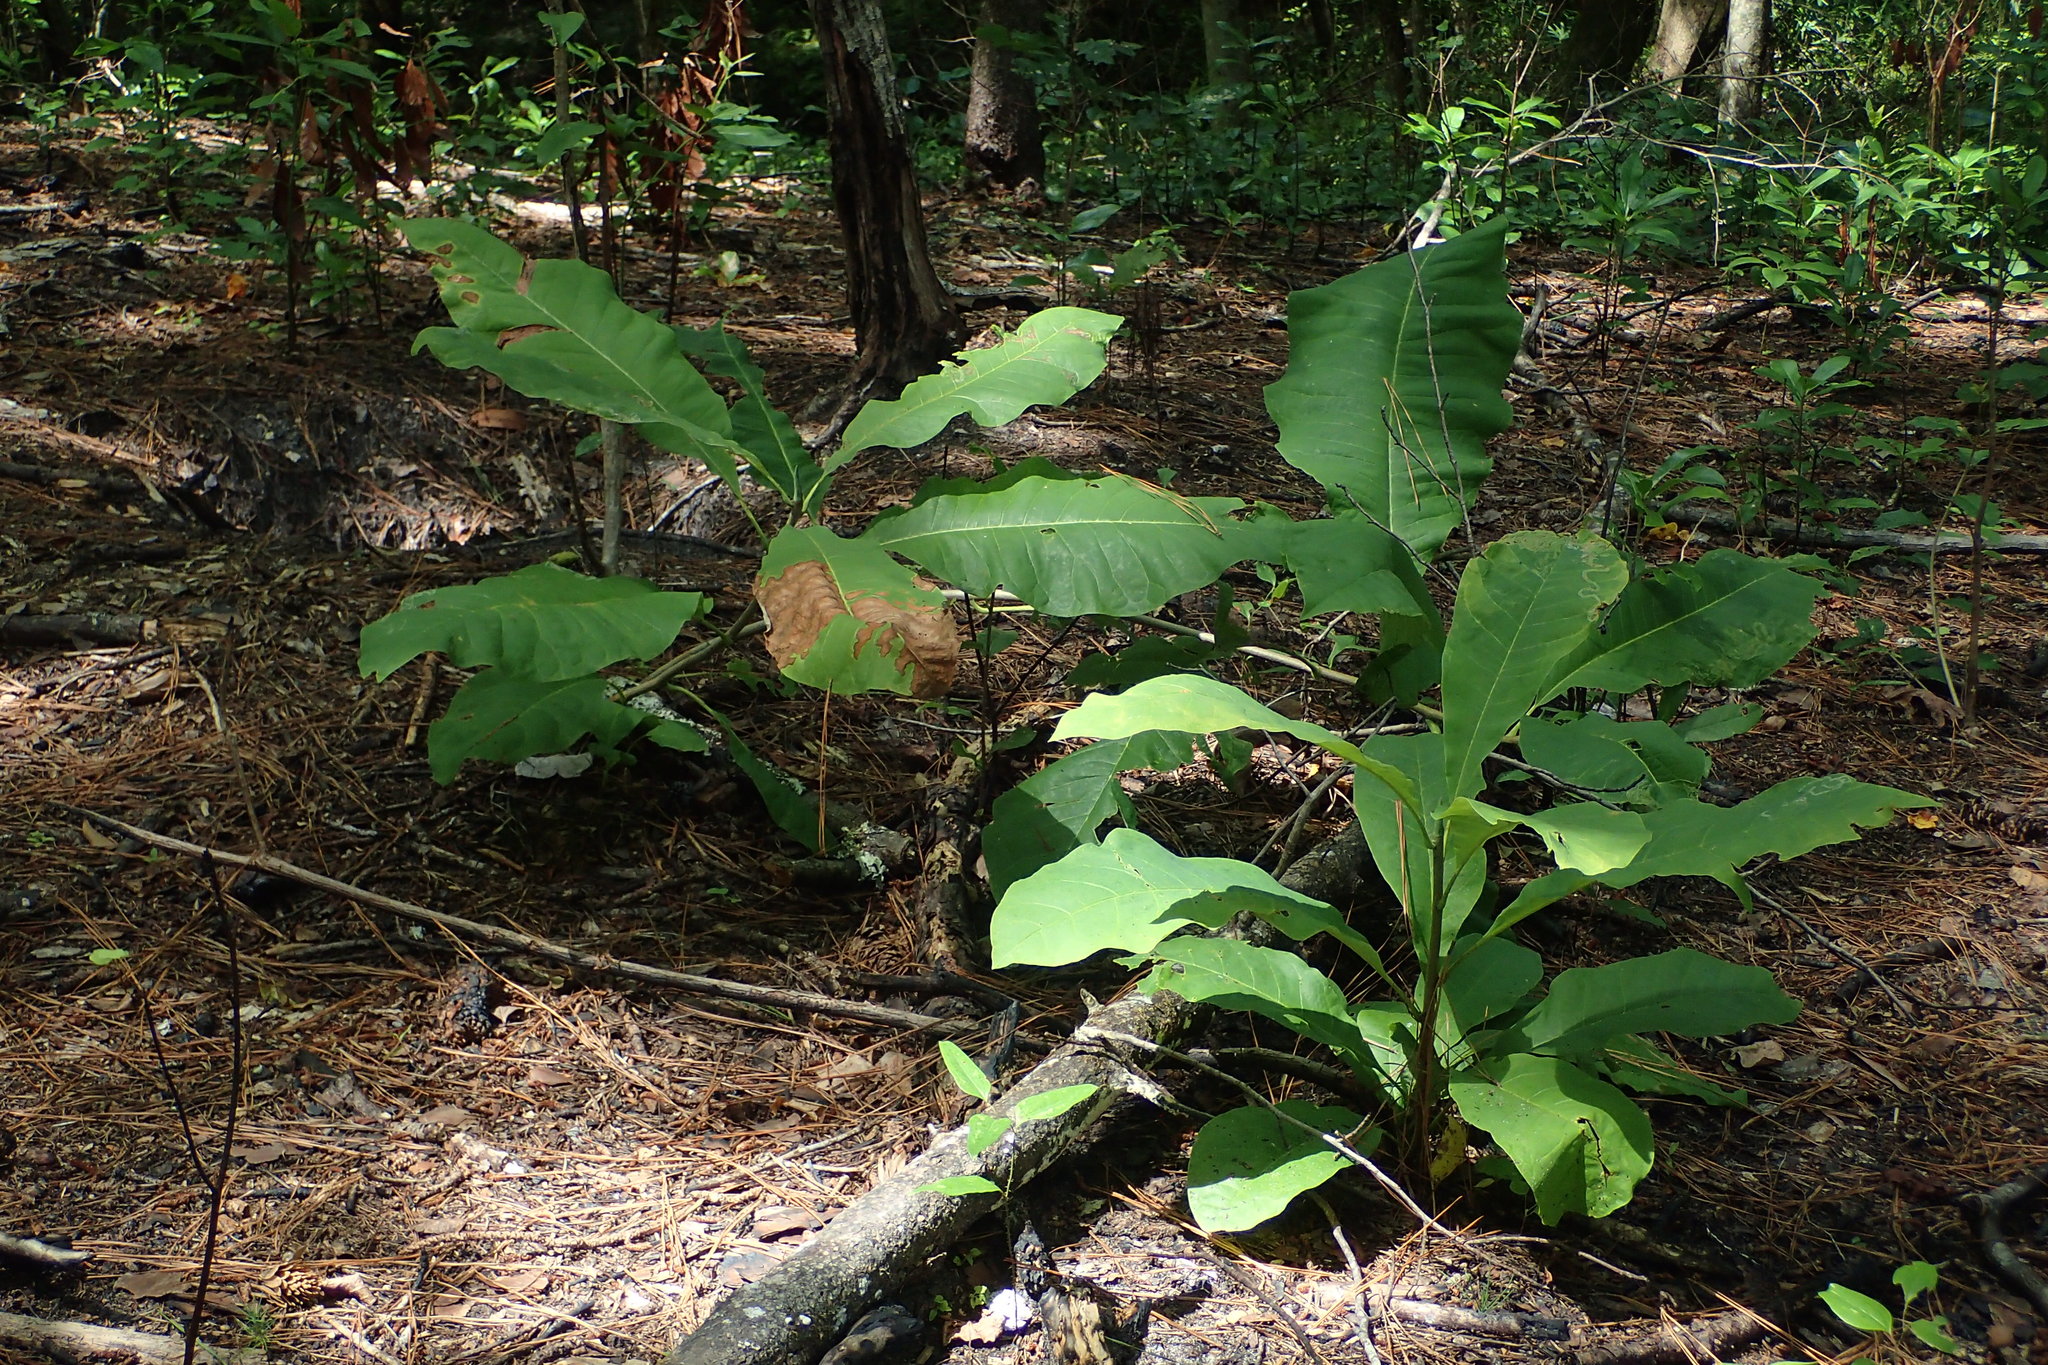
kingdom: Plantae
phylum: Tracheophyta
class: Magnoliopsida
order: Magnoliales
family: Magnoliaceae
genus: Magnolia
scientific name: Magnolia tripetala
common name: Umbrella magnolia
